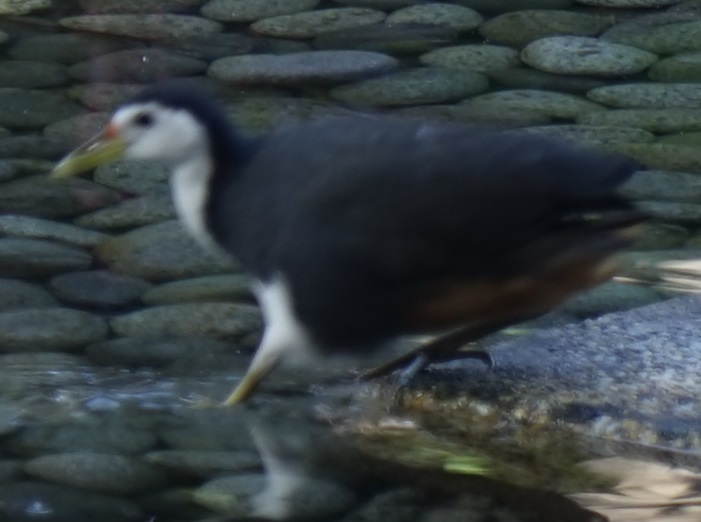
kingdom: Animalia
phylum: Chordata
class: Aves
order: Gruiformes
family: Rallidae
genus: Amaurornis
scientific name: Amaurornis phoenicurus
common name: White-breasted waterhen
